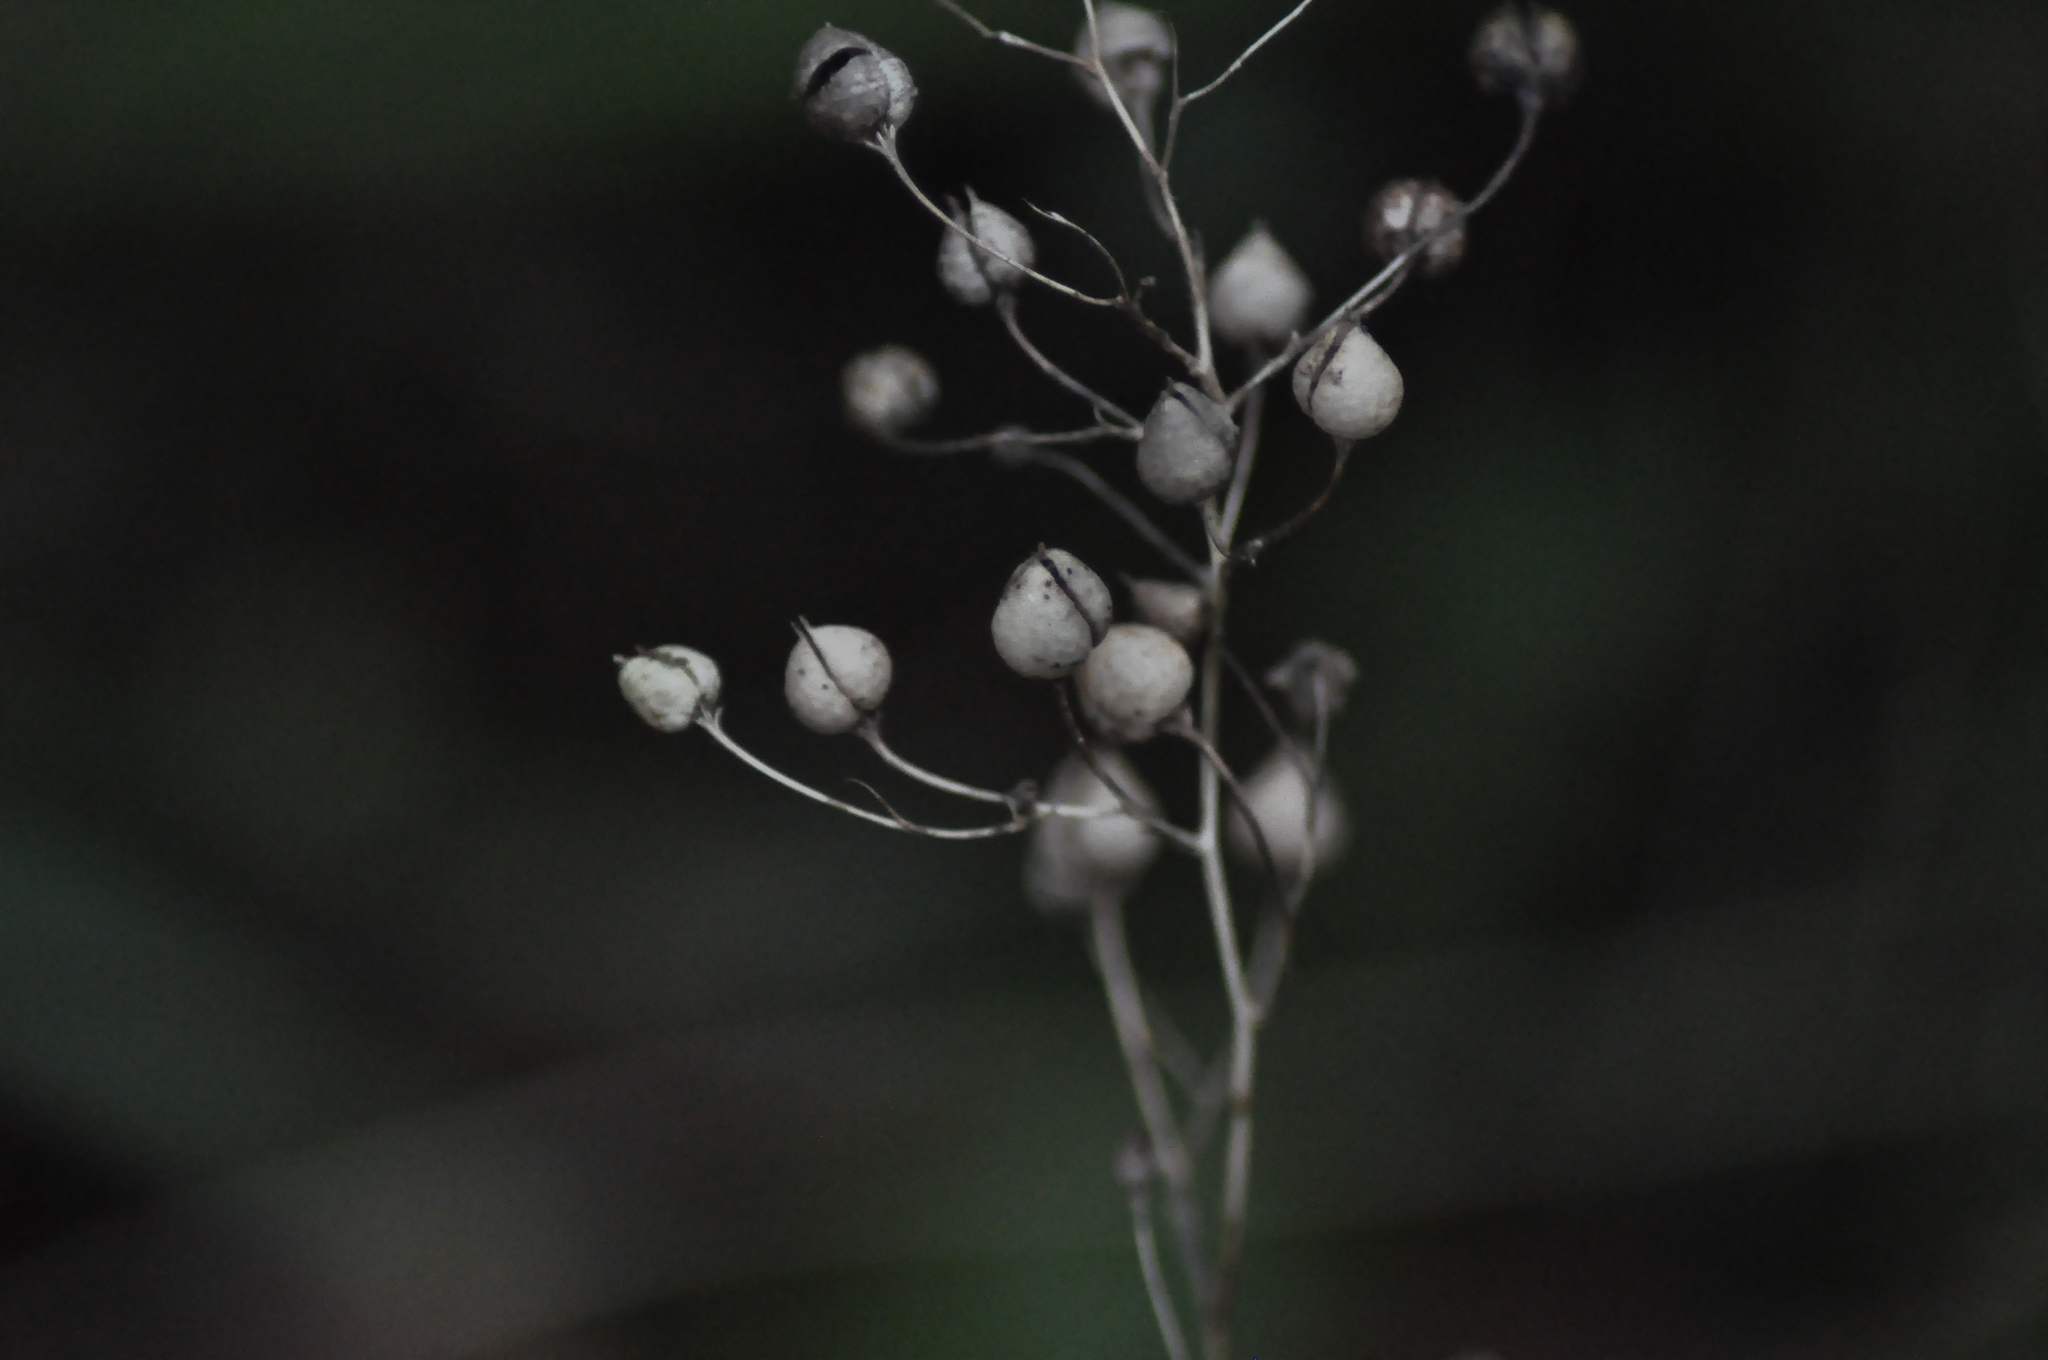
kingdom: Plantae
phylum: Tracheophyta
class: Magnoliopsida
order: Lamiales
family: Scrophulariaceae
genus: Scrophularia
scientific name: Scrophularia nodosa
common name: Common figwort
